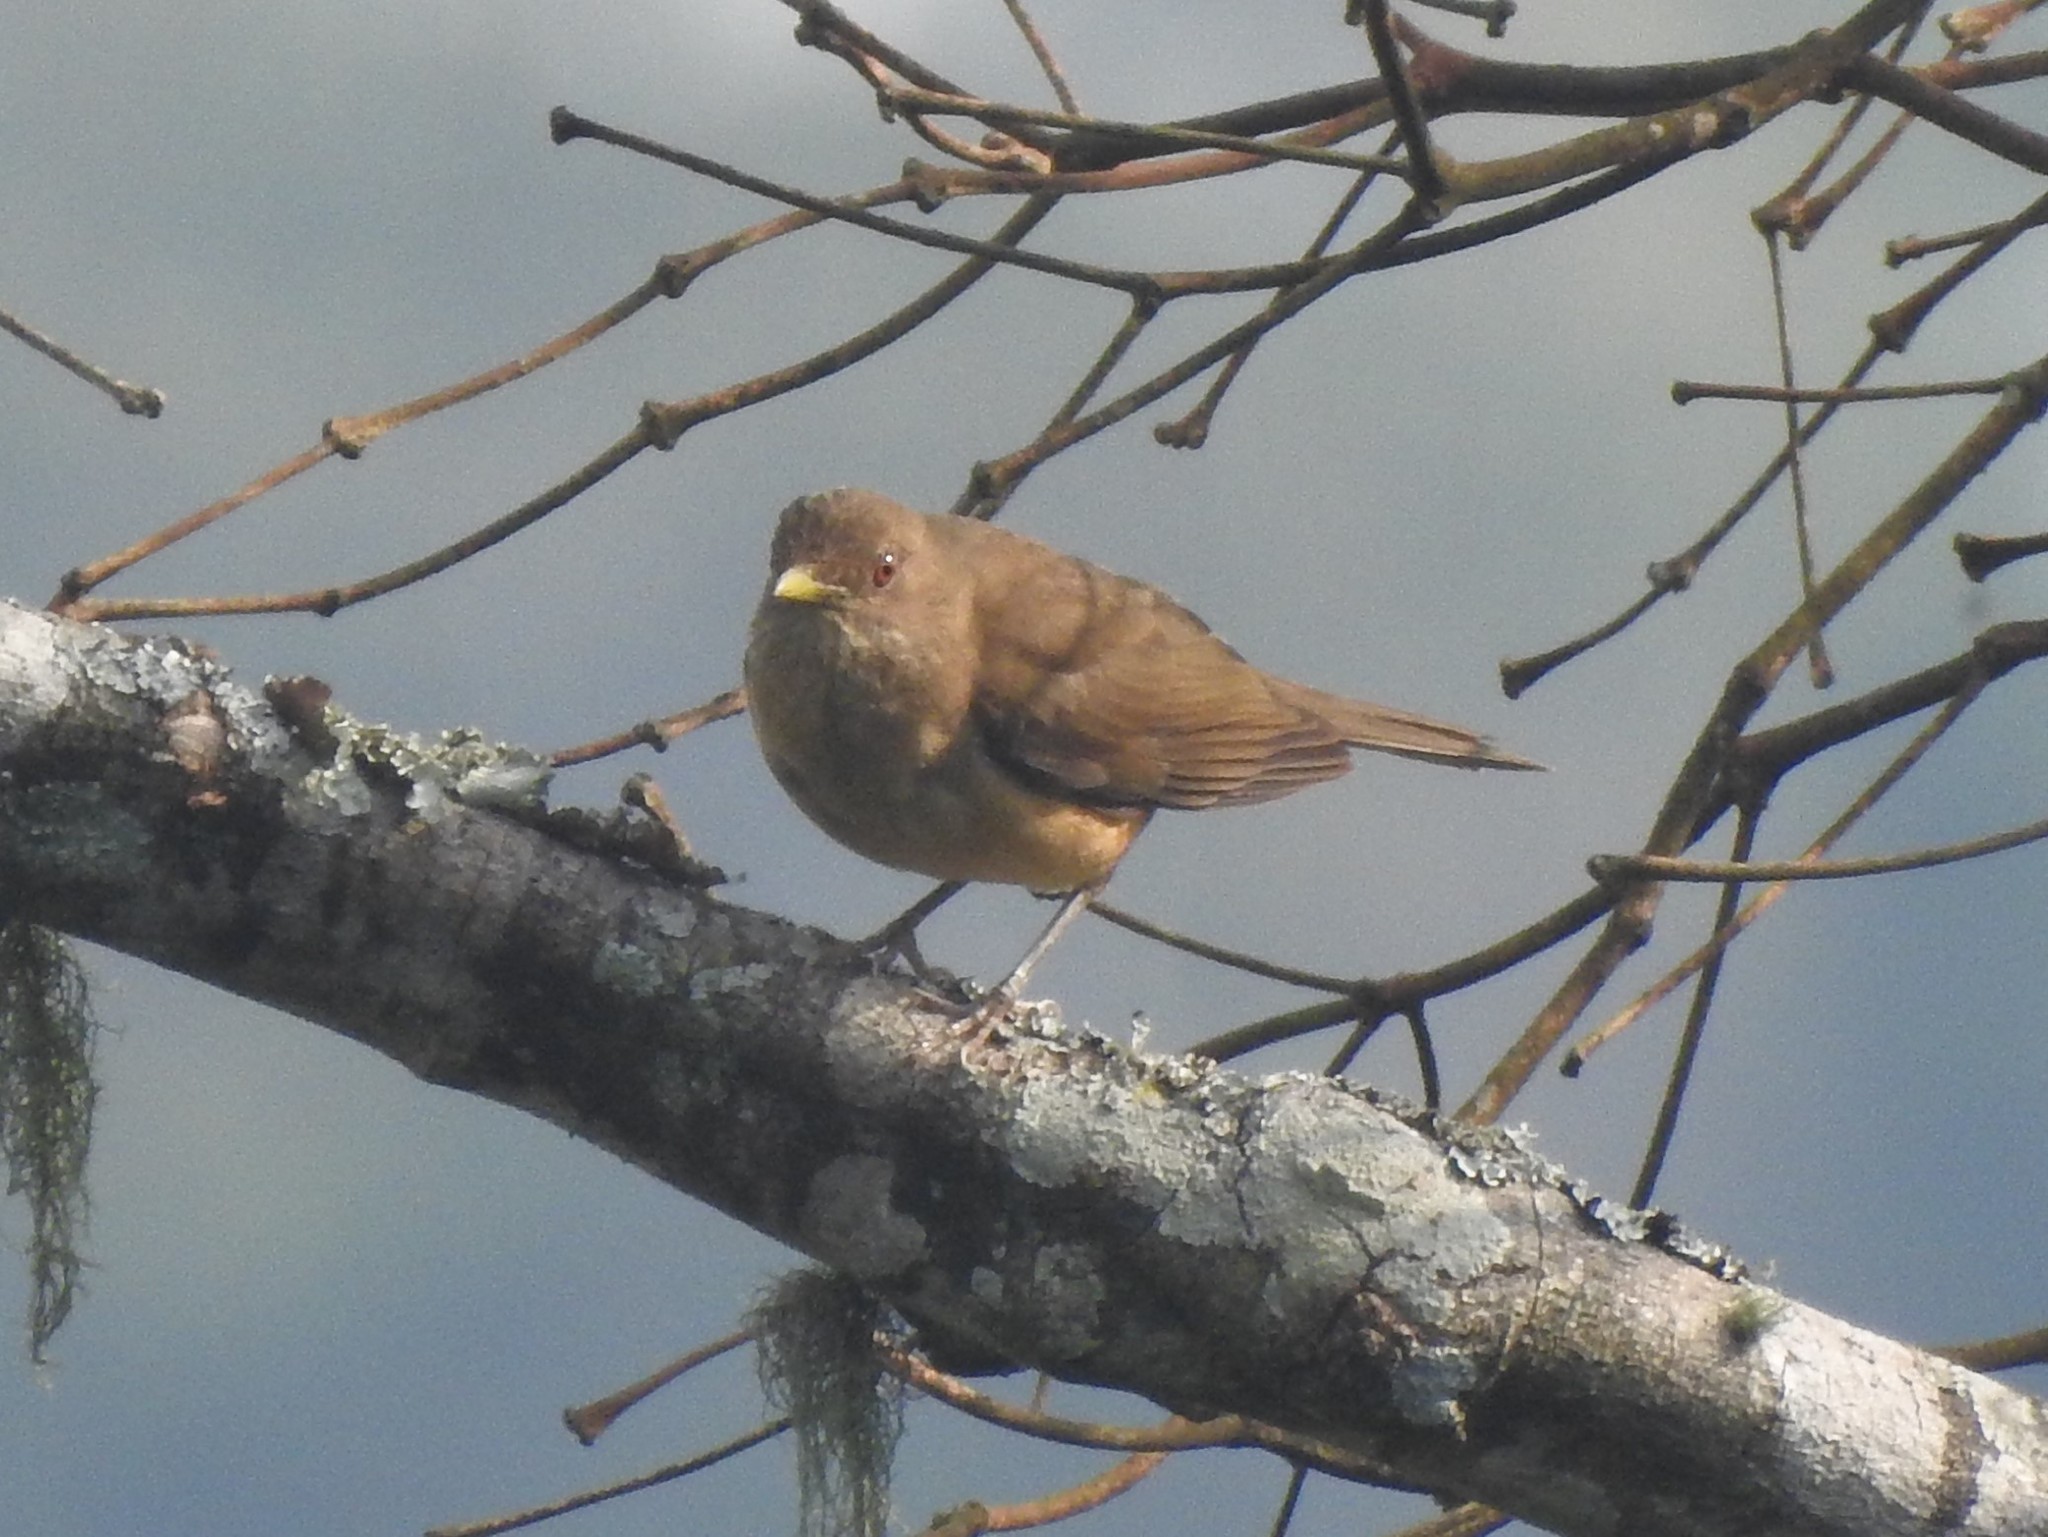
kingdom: Animalia
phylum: Chordata
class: Aves
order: Passeriformes
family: Turdidae
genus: Turdus
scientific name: Turdus grayi
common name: Clay-colored thrush
